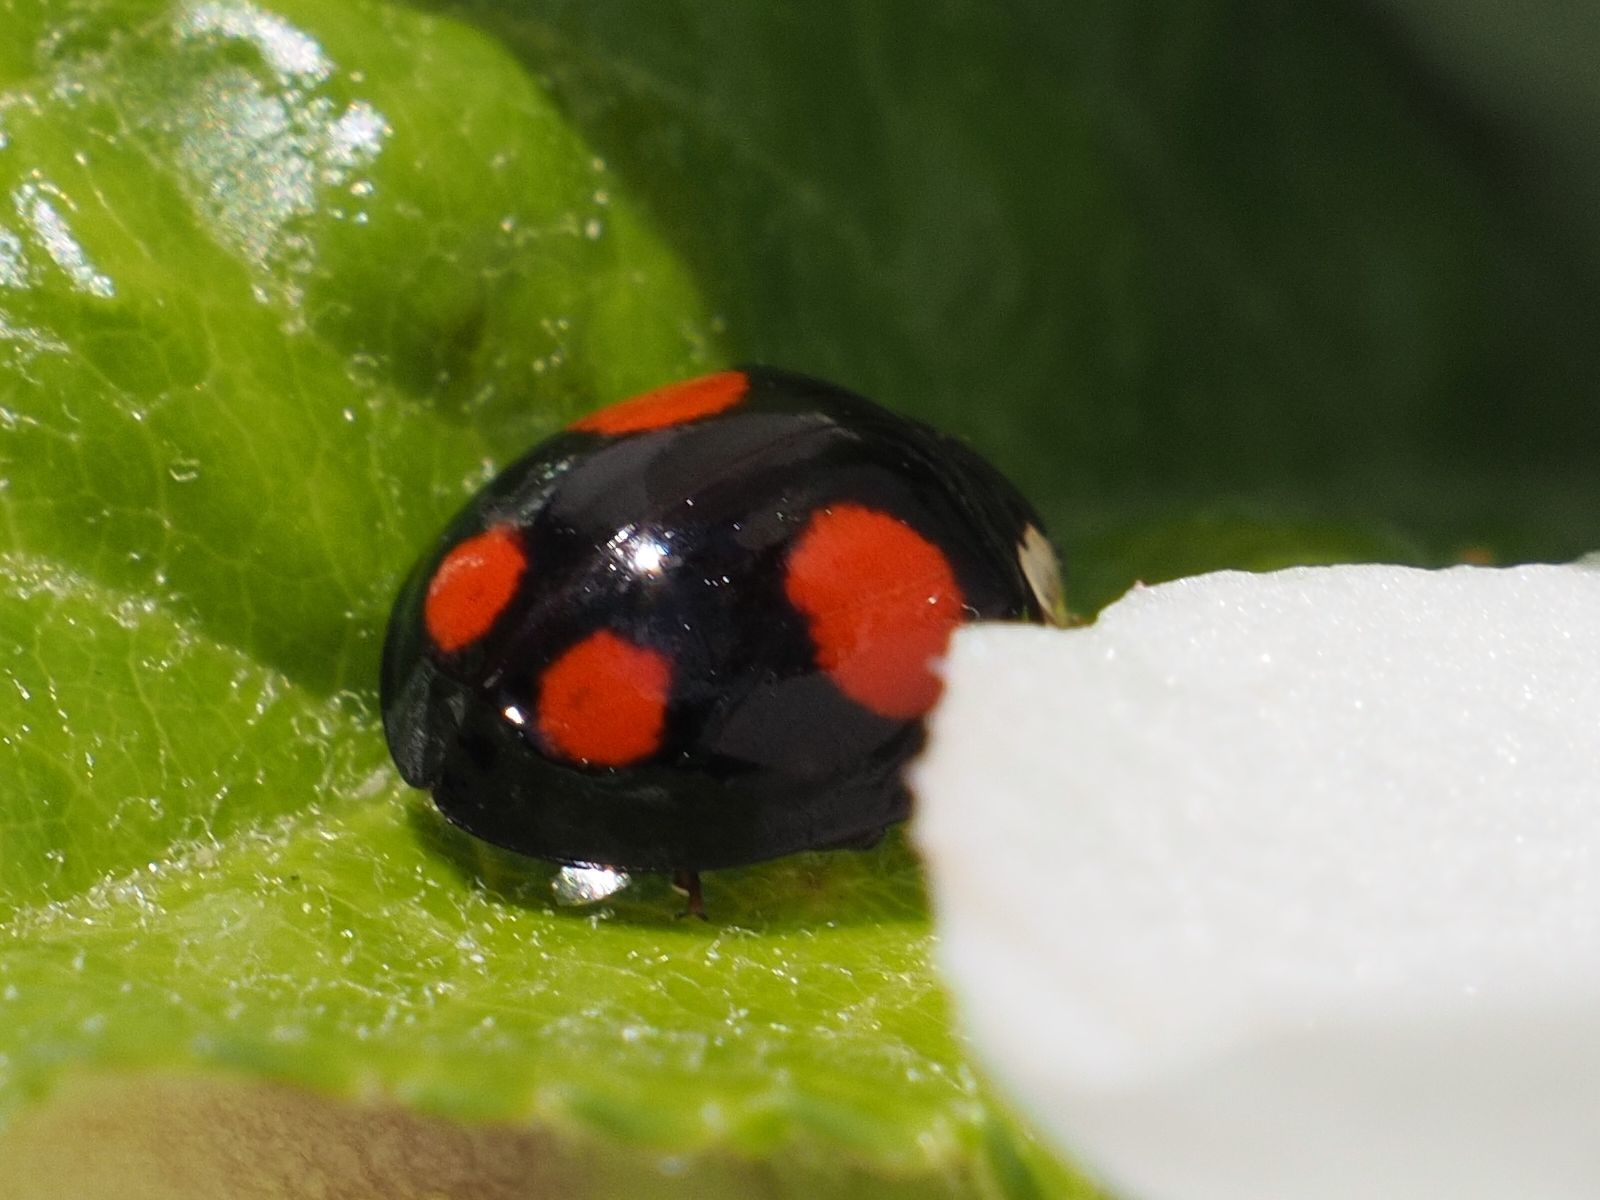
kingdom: Animalia
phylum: Arthropoda
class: Insecta
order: Coleoptera
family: Coccinellidae
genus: Harmonia
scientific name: Harmonia axyridis
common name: Harlequin ladybird
